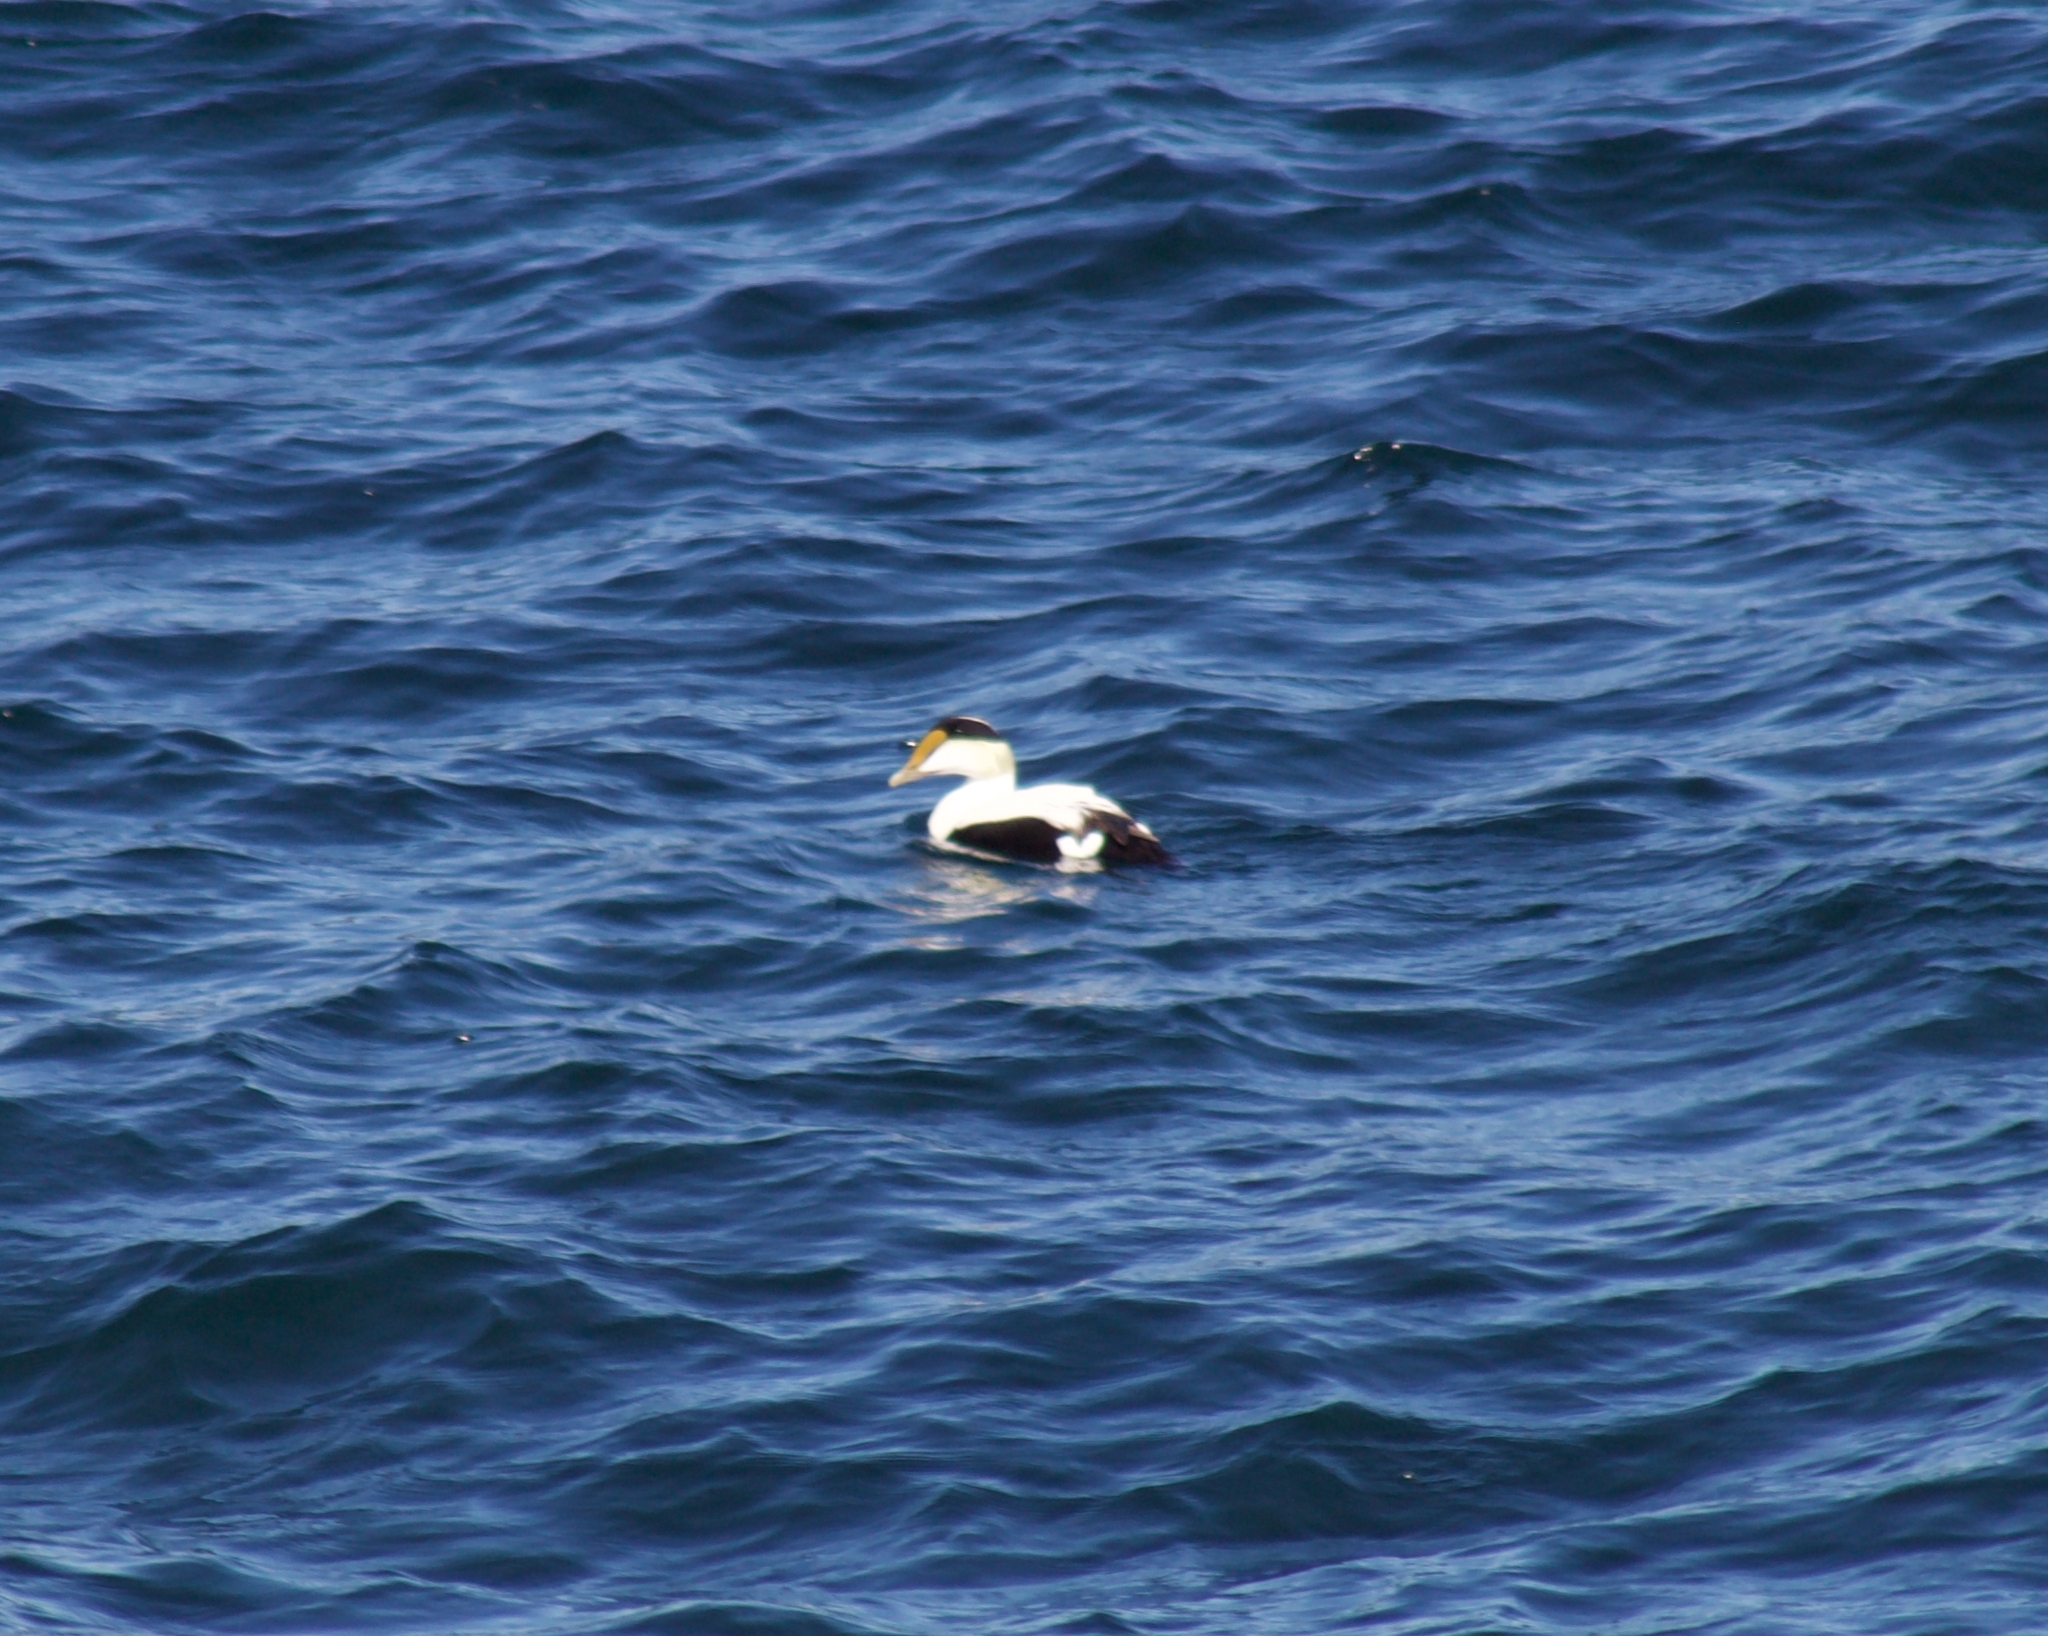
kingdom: Animalia
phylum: Chordata
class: Aves
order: Anseriformes
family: Anatidae
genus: Somateria
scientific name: Somateria mollissima
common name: Common eider
